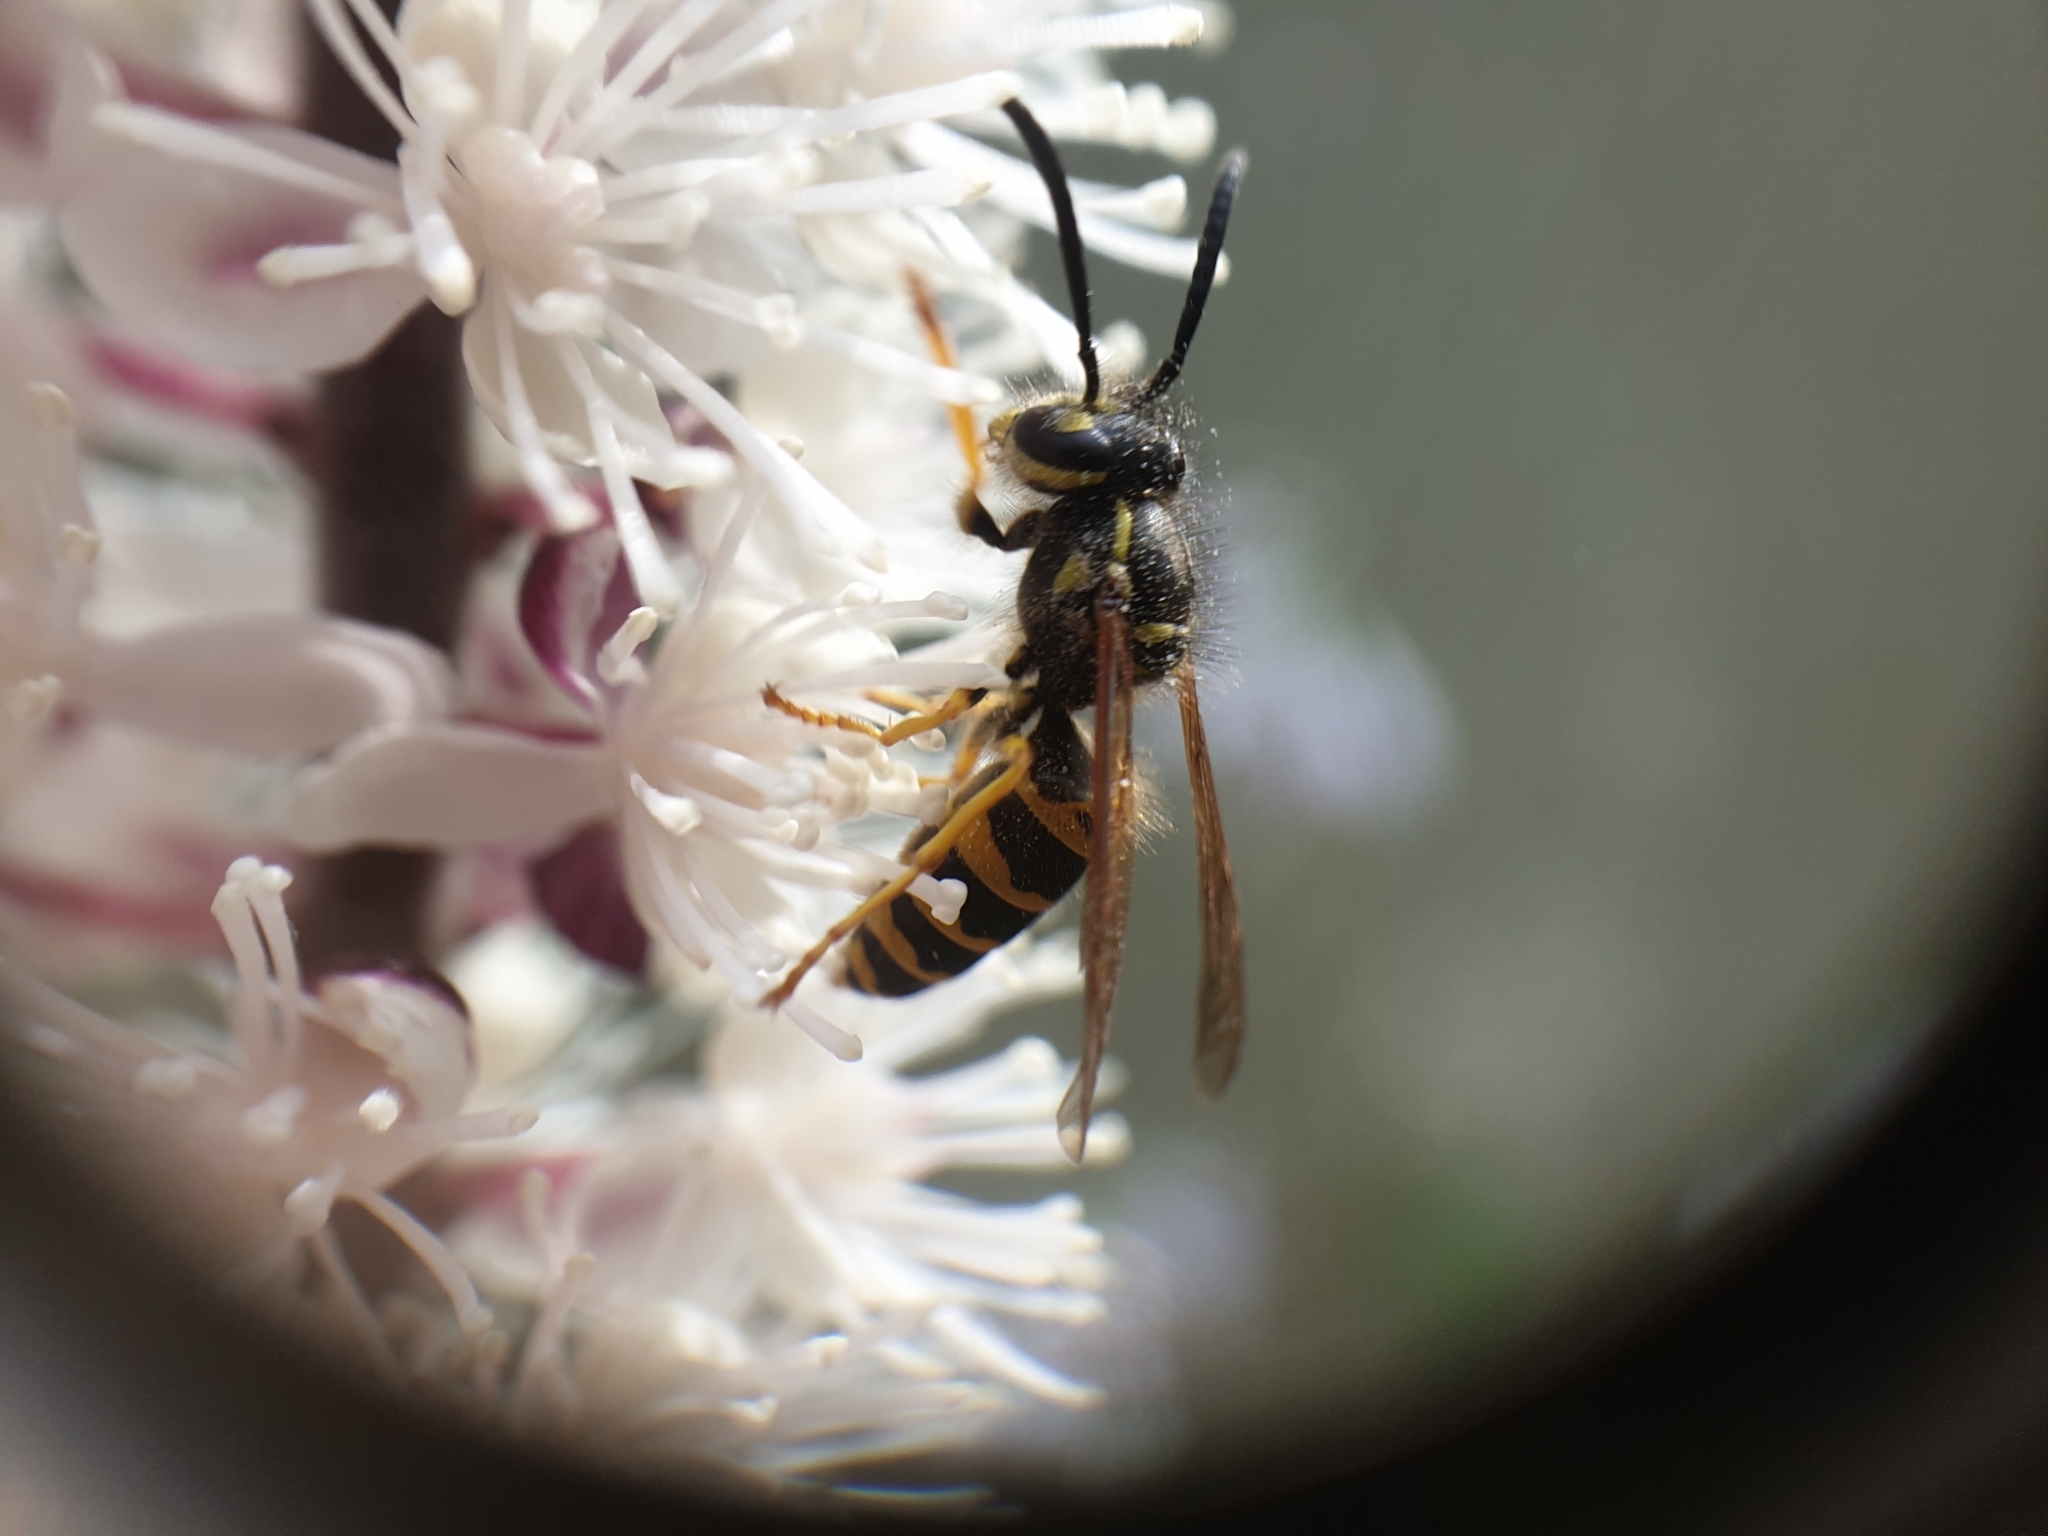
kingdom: Animalia
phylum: Arthropoda
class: Insecta
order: Hymenoptera
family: Vespidae
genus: Vespula
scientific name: Vespula maculifrons
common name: Eastern yellowjacket
